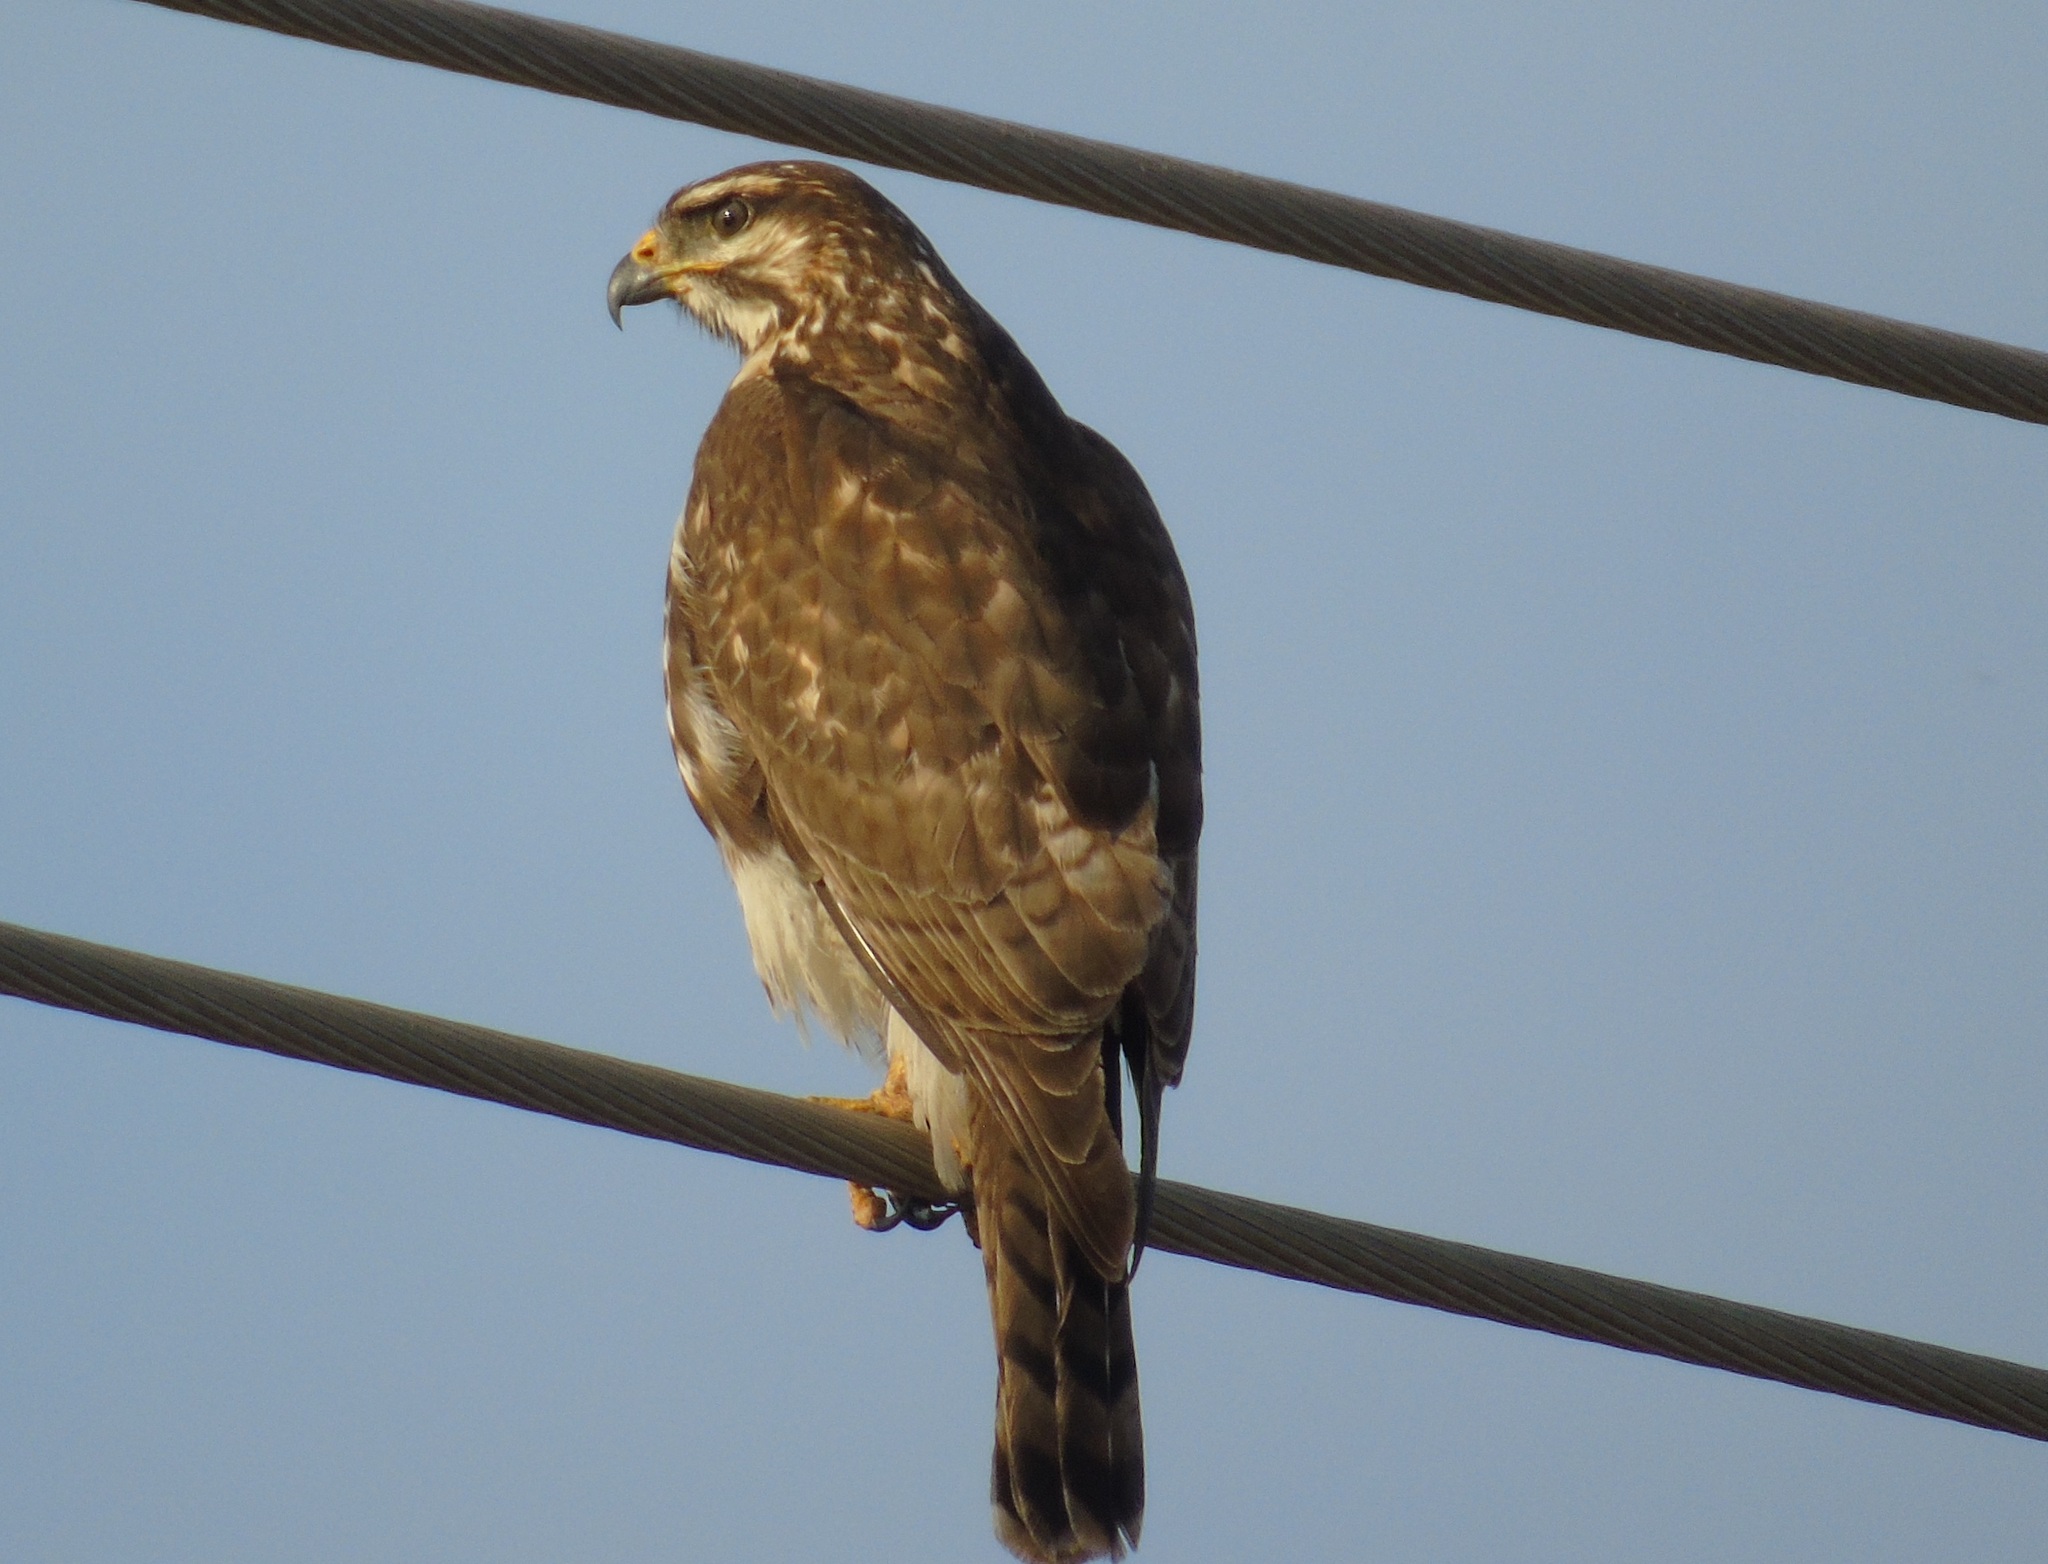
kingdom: Animalia
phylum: Chordata
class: Aves
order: Accipitriformes
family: Accipitridae
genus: Buteo
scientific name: Buteo nitidus
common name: Grey-lined hawk
